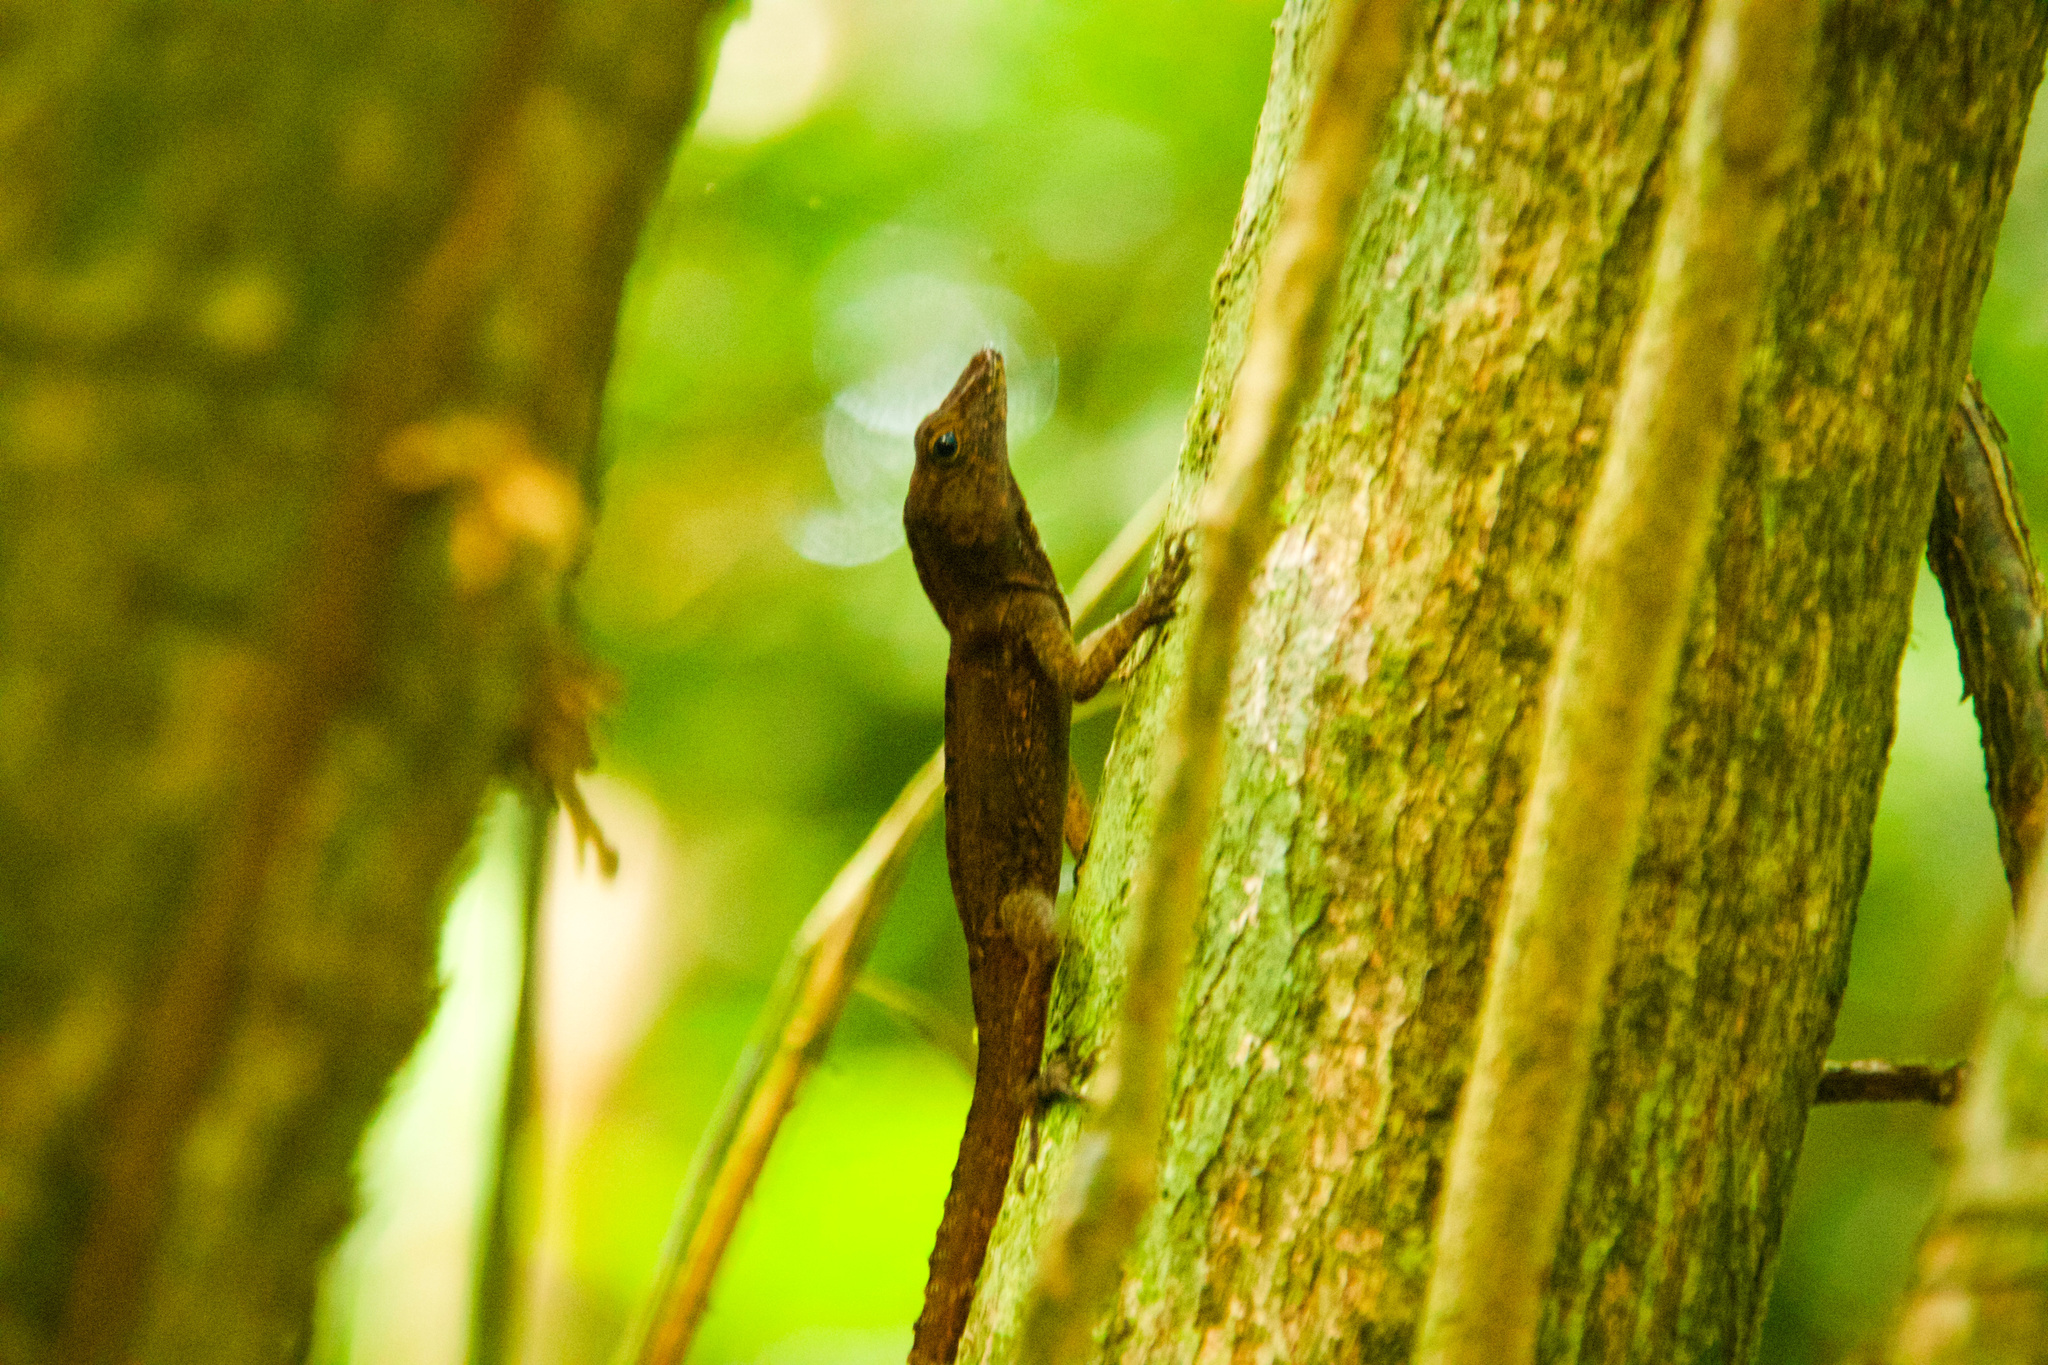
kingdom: Animalia
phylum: Chordata
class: Squamata
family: Dactyloidae
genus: Anolis
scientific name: Anolis gundlachi
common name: Gundlach’s anole
